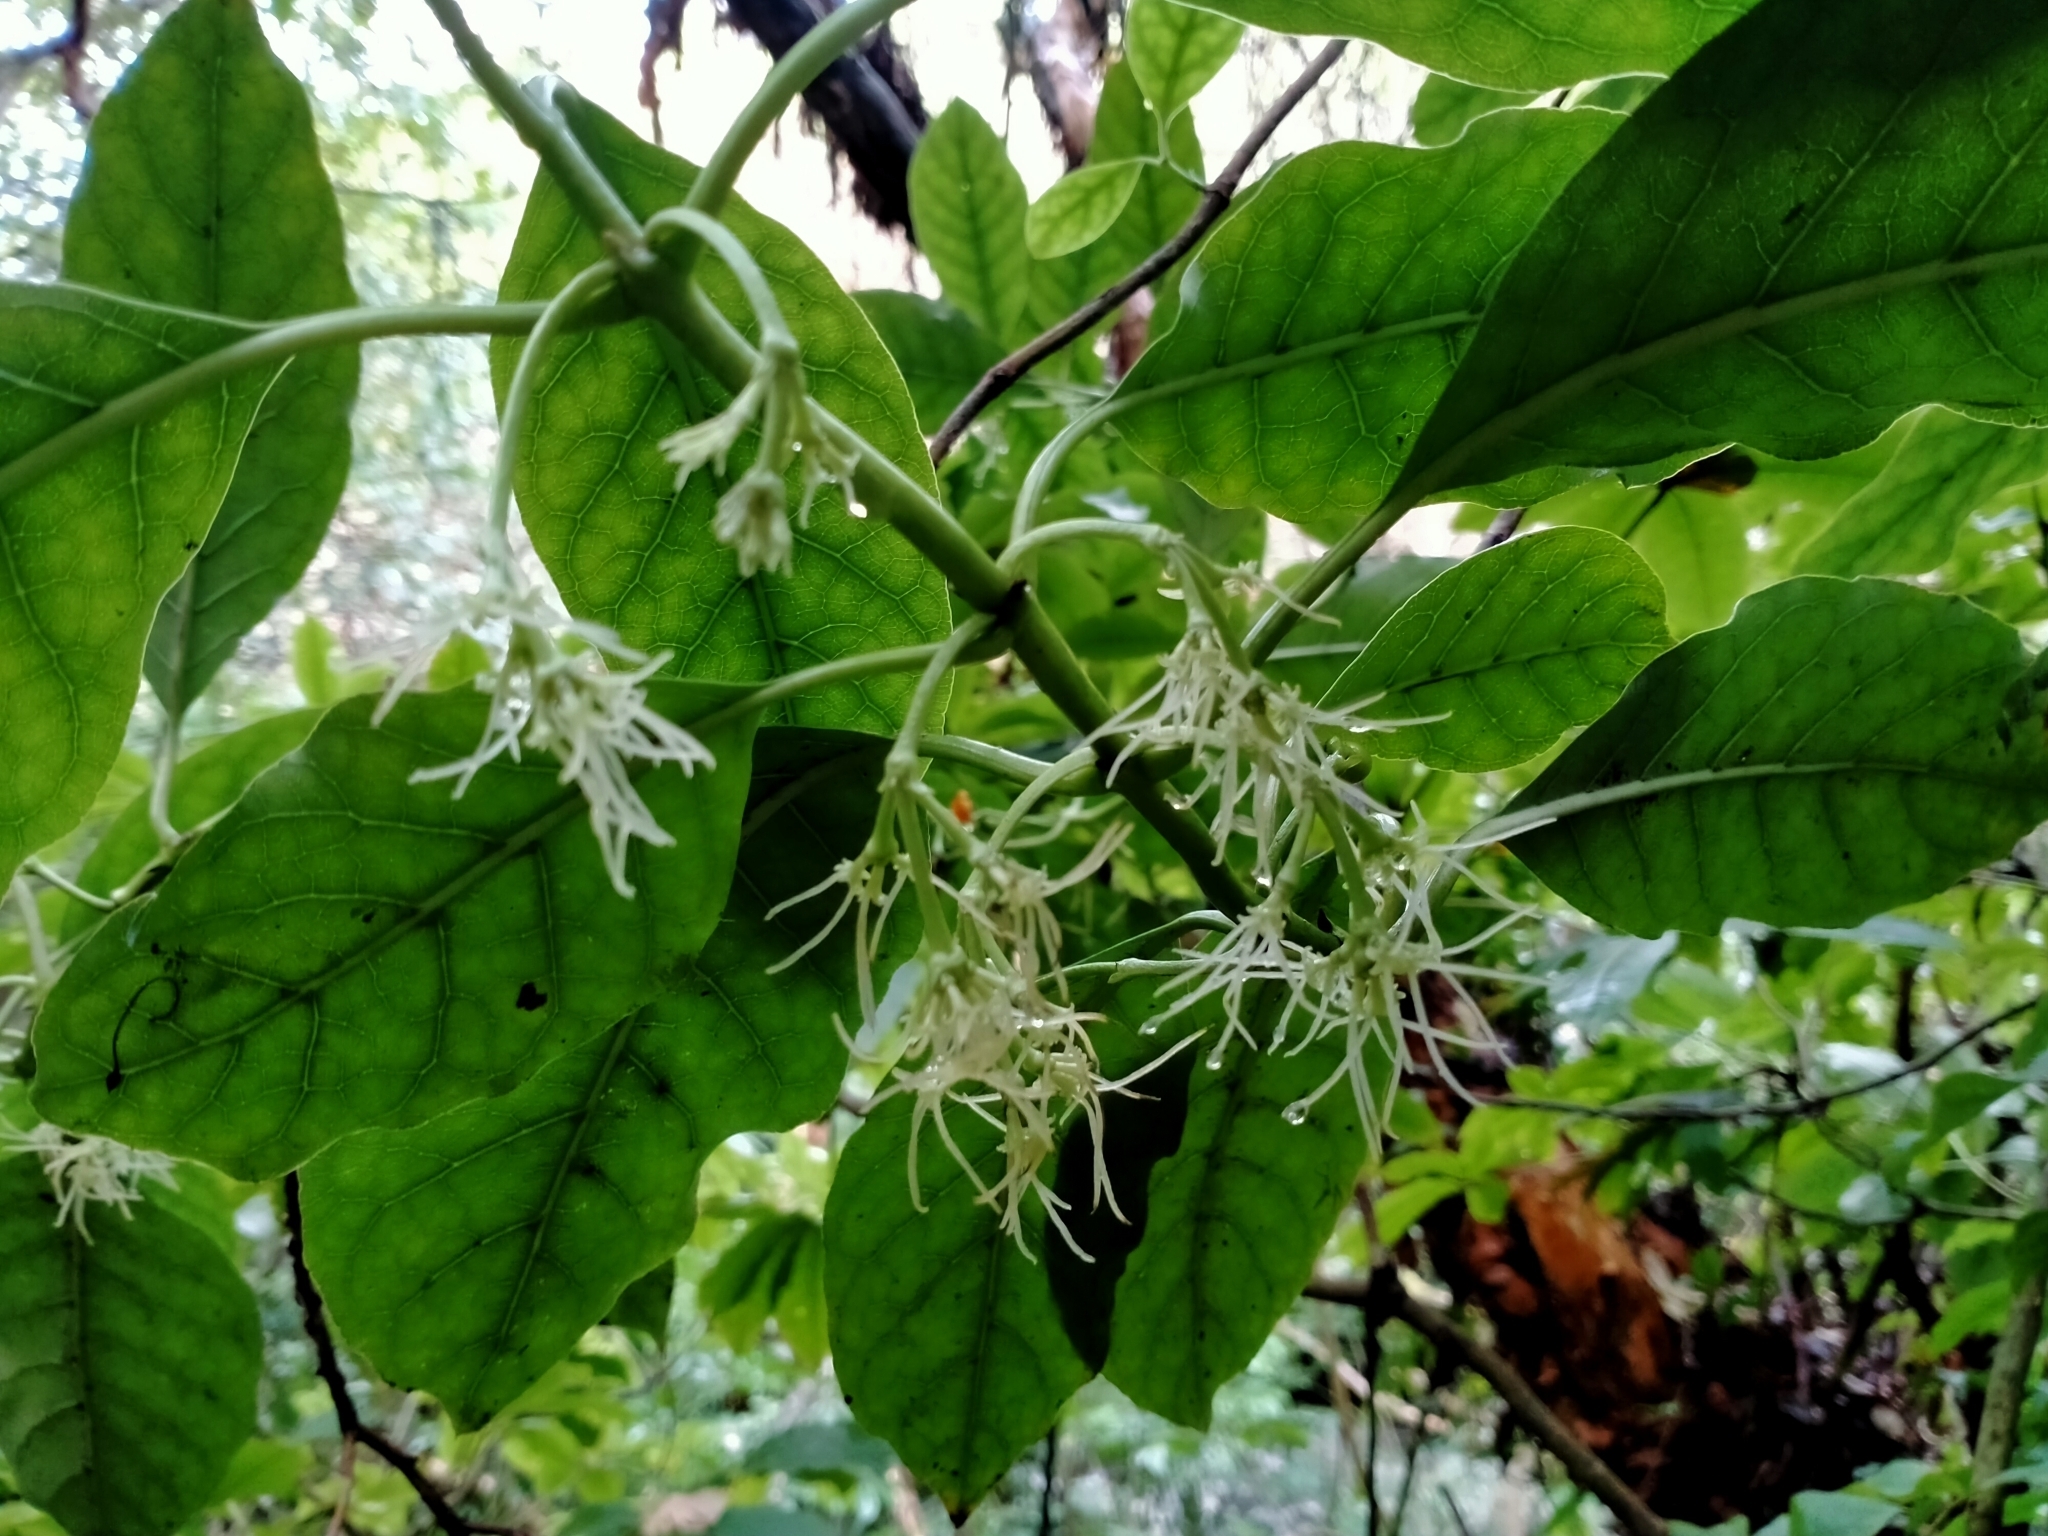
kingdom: Plantae
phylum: Tracheophyta
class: Magnoliopsida
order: Gentianales
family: Rubiaceae
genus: Coprosma
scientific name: Coprosma autumnalis
